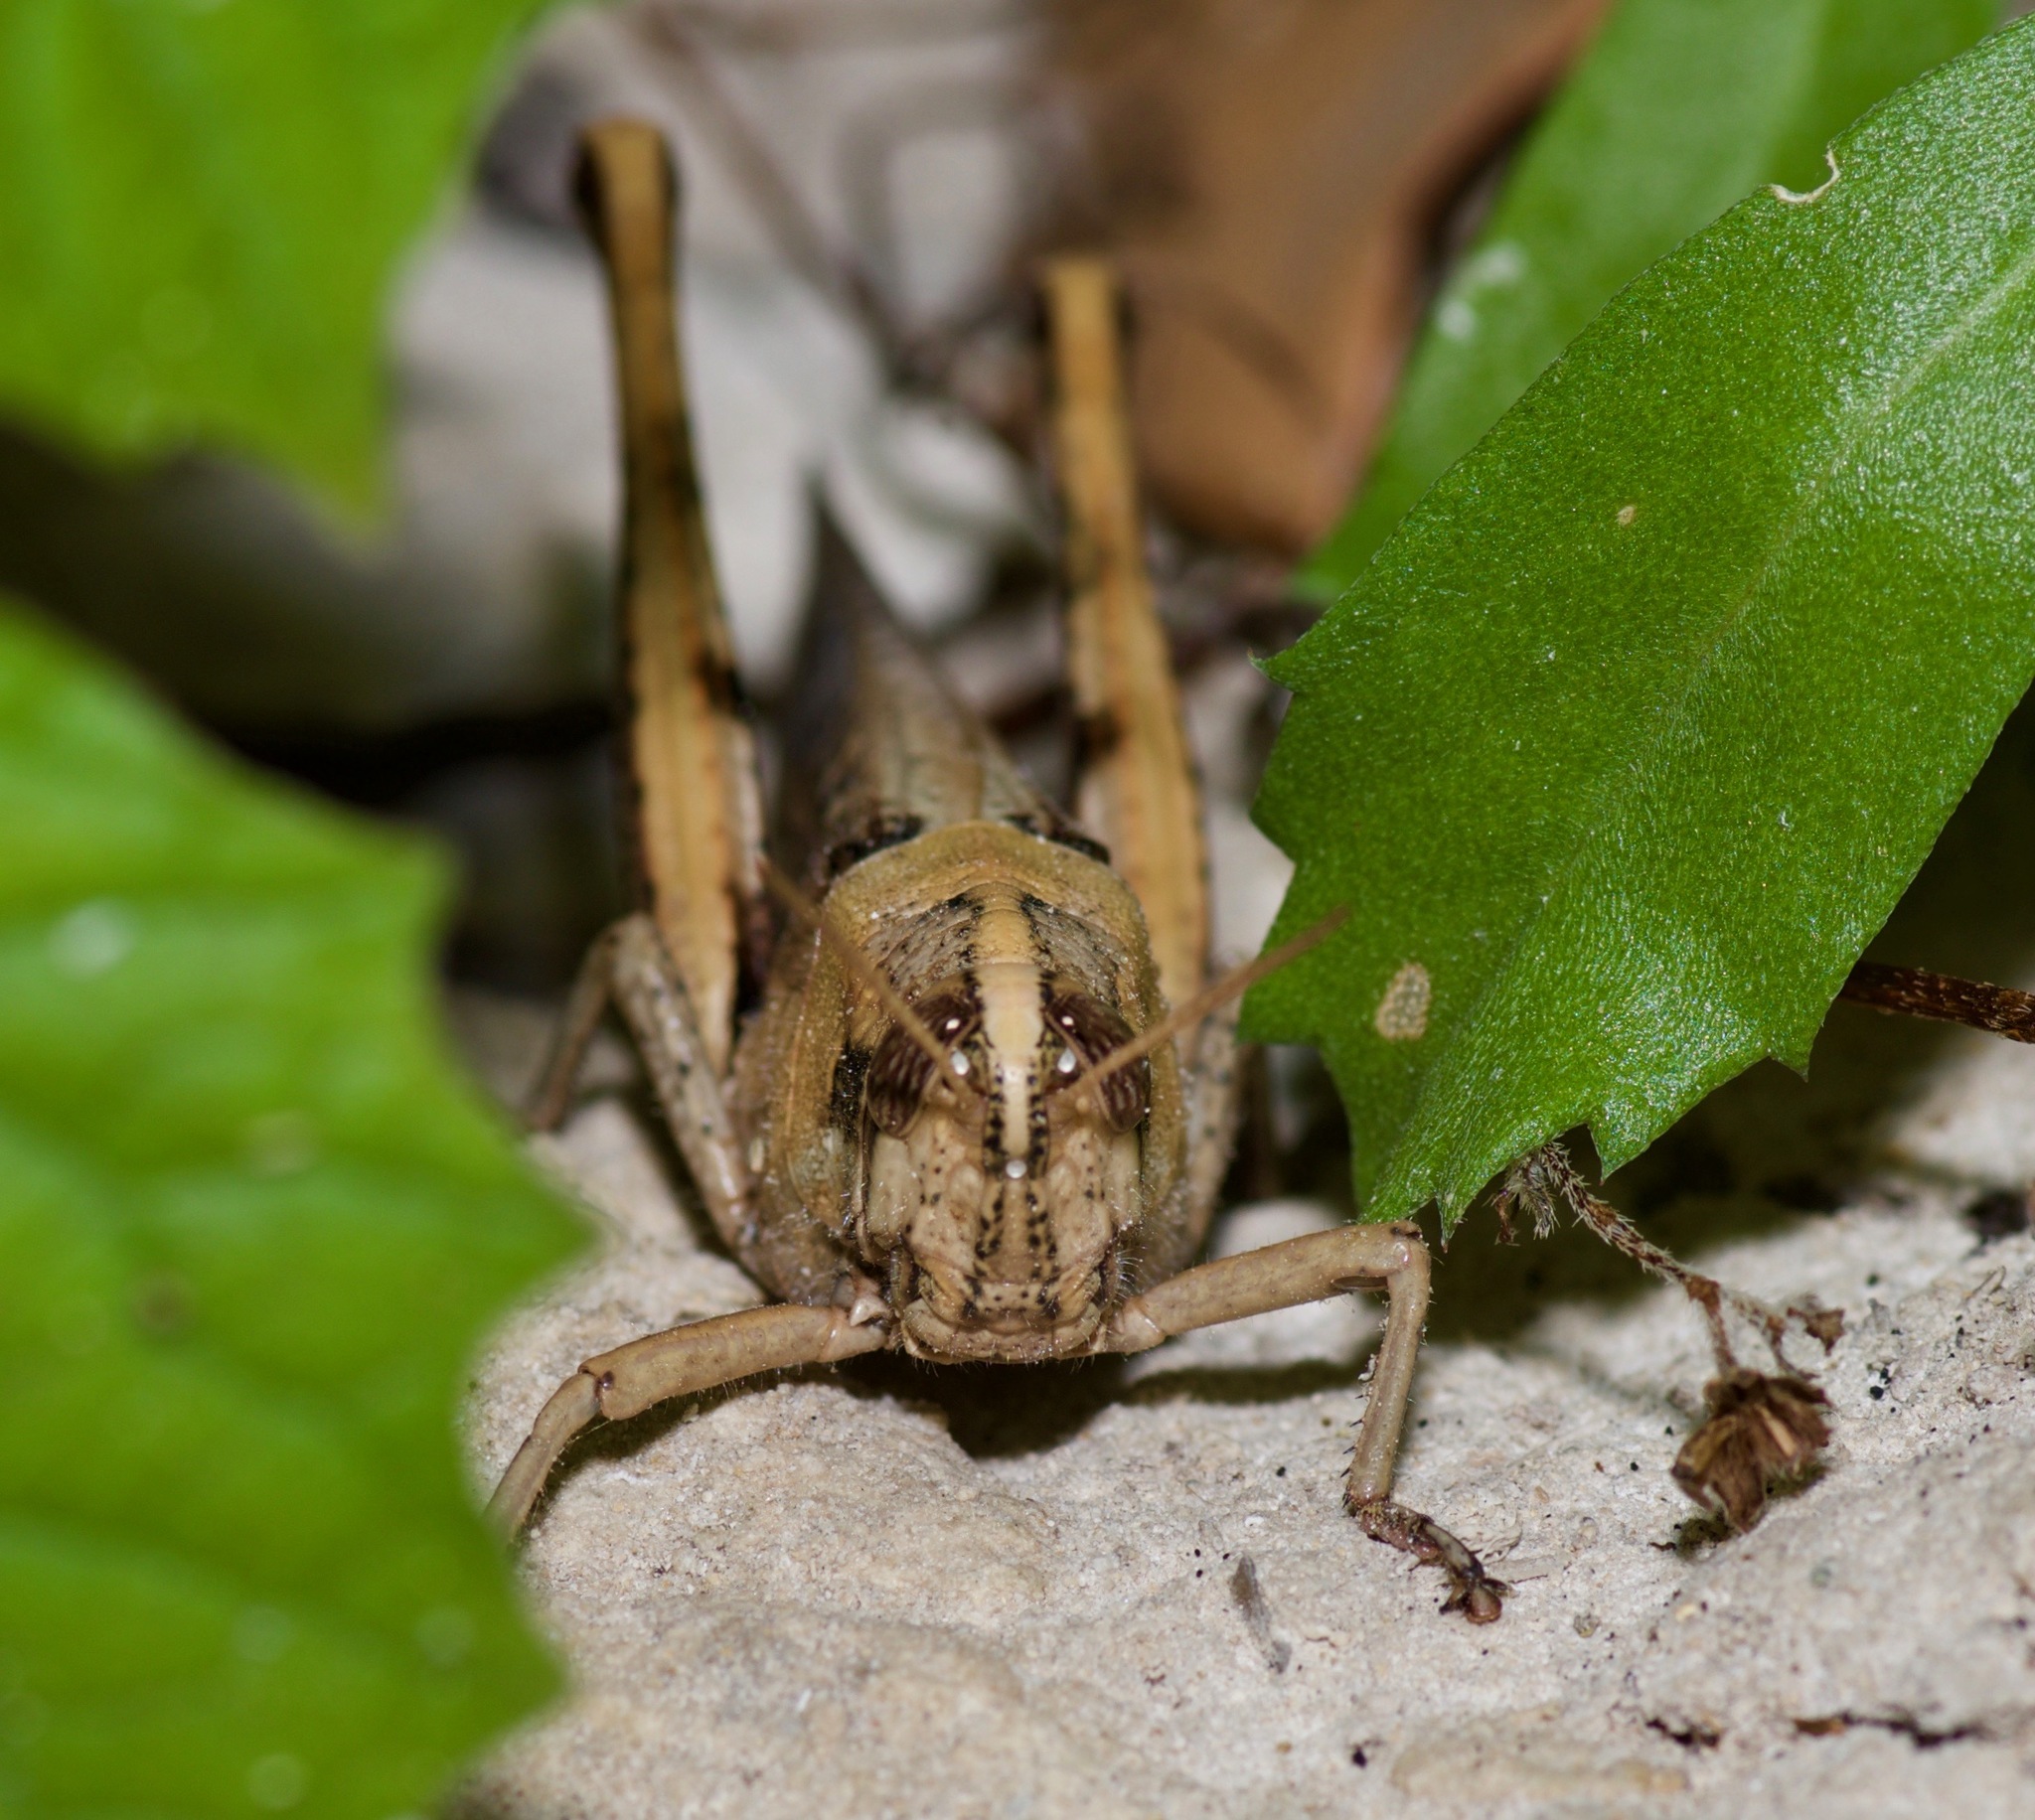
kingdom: Animalia
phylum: Arthropoda
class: Insecta
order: Orthoptera
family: Acrididae
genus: Schistocerca
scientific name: Schistocerca nitens
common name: Vagrant grasshopper
